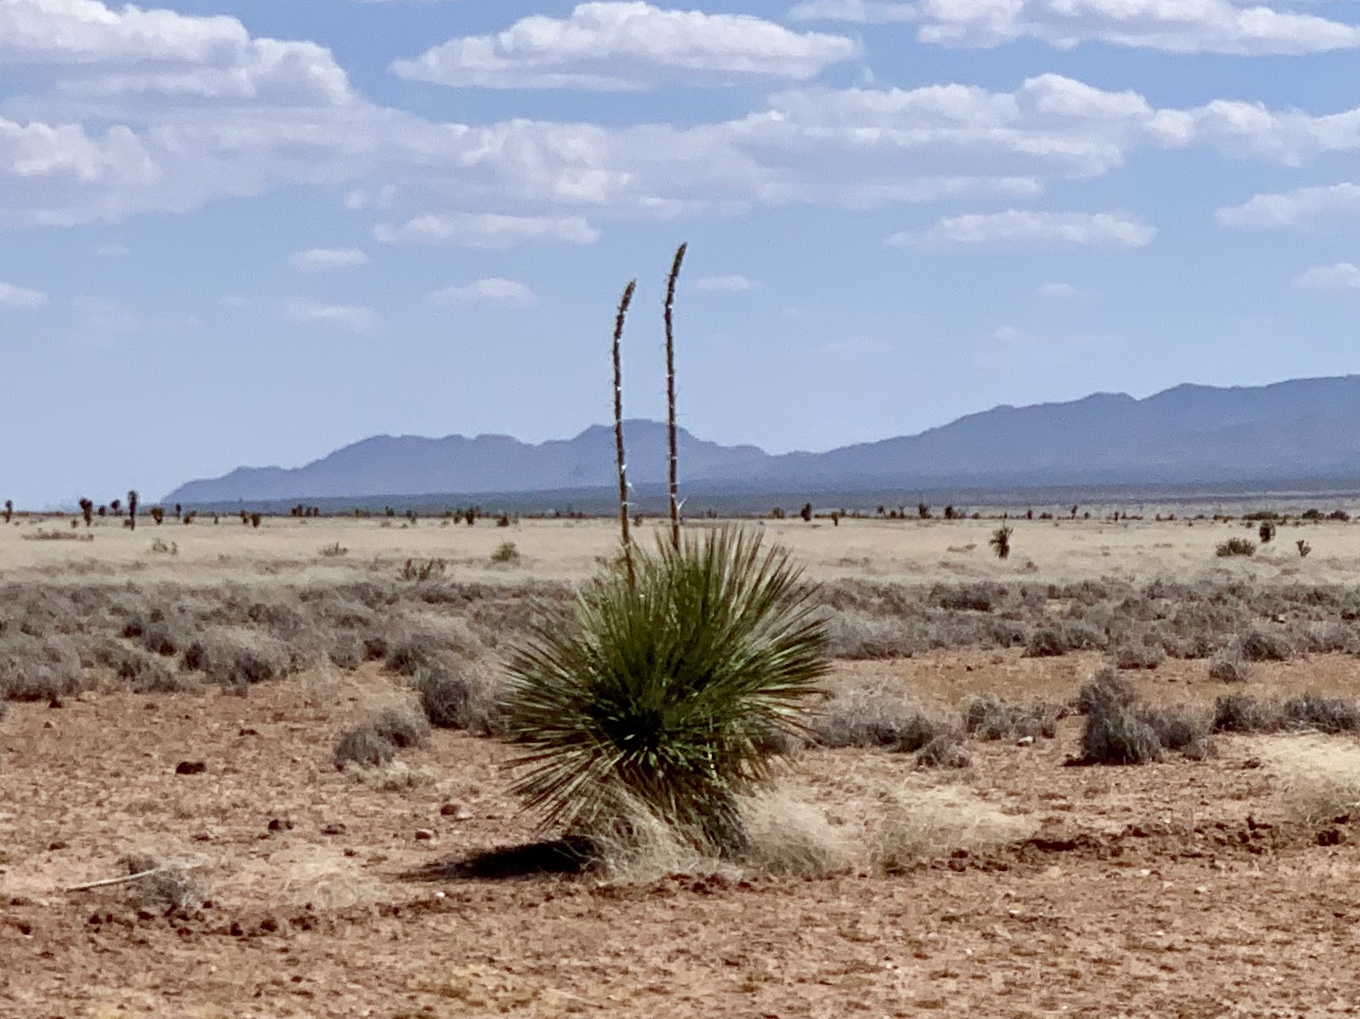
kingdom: Plantae
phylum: Tracheophyta
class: Liliopsida
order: Asparagales
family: Asparagaceae
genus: Yucca
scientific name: Yucca elata
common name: Palmella
